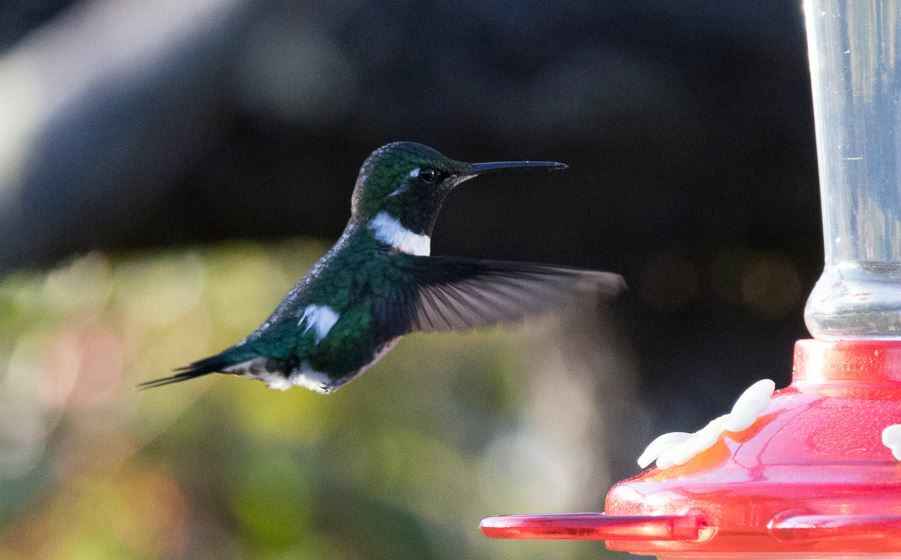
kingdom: Animalia
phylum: Chordata
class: Aves
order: Apodiformes
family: Trochilidae
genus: Chaetocercus
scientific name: Chaetocercus mulsant
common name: White-bellied woodstar
